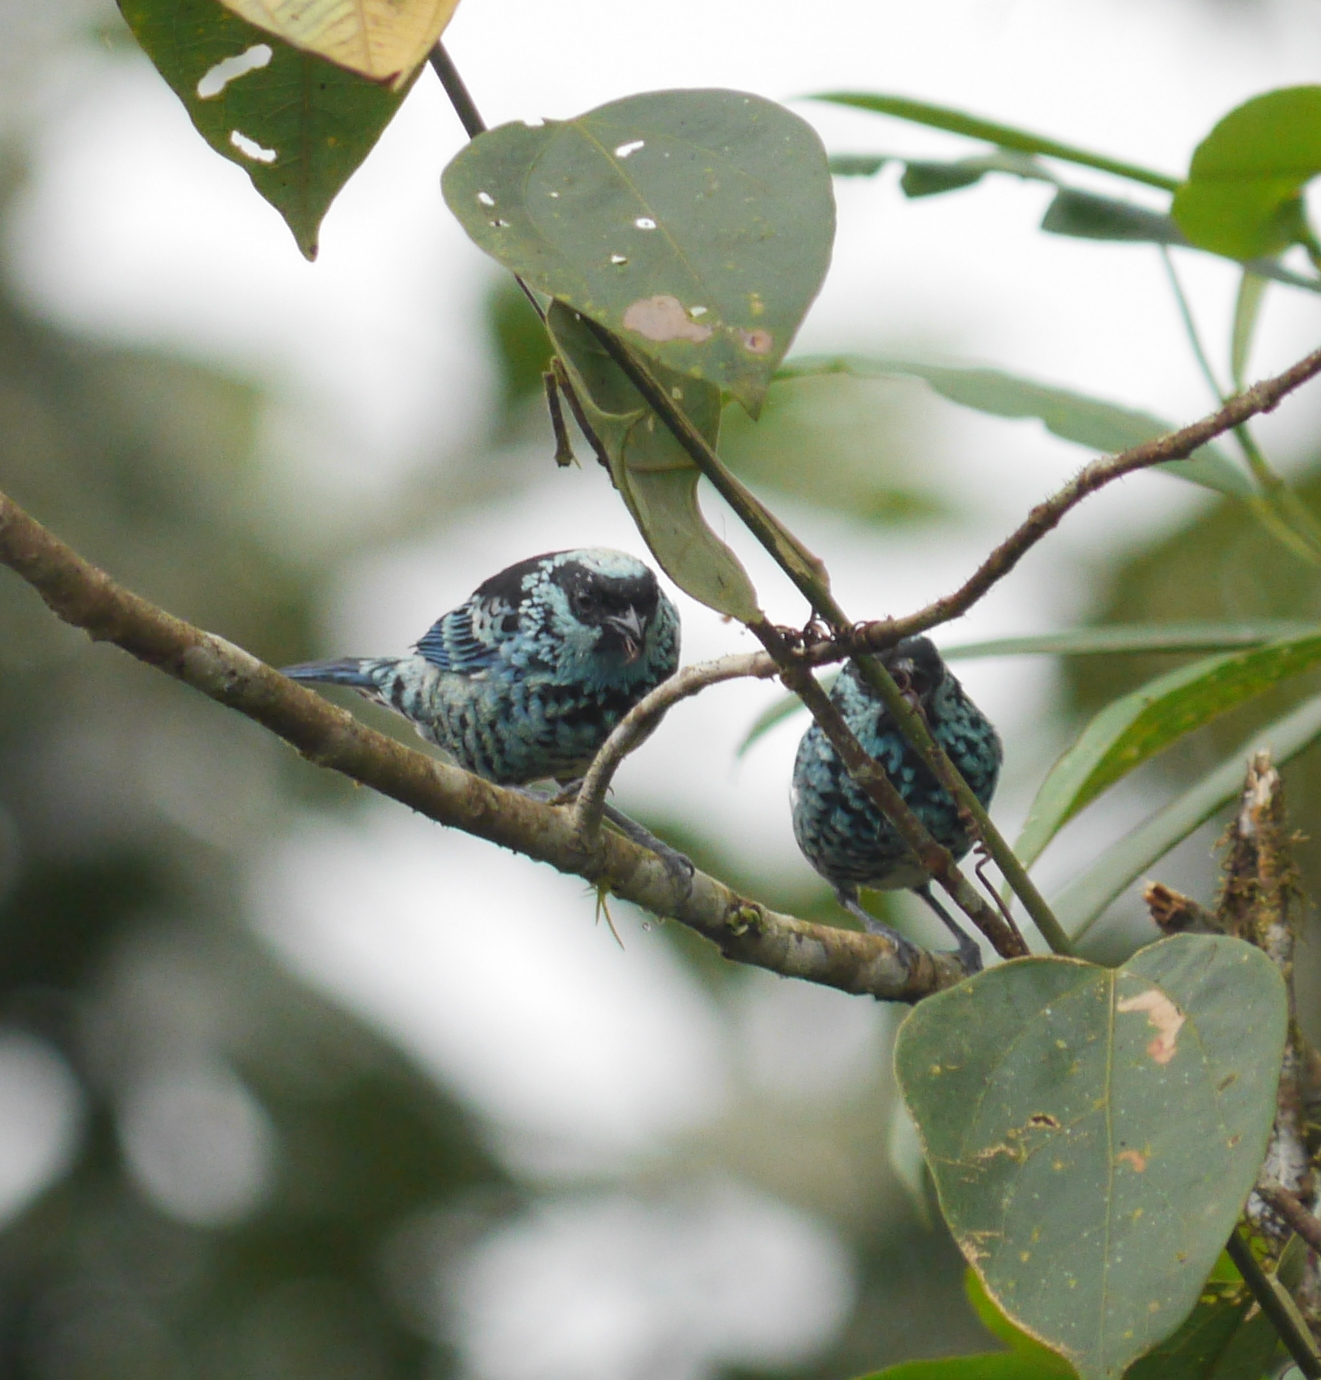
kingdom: Animalia
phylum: Chordata
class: Aves
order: Passeriformes
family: Thraupidae
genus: Tangara
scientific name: Tangara nigroviridis
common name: Beryl-spangled tanager
